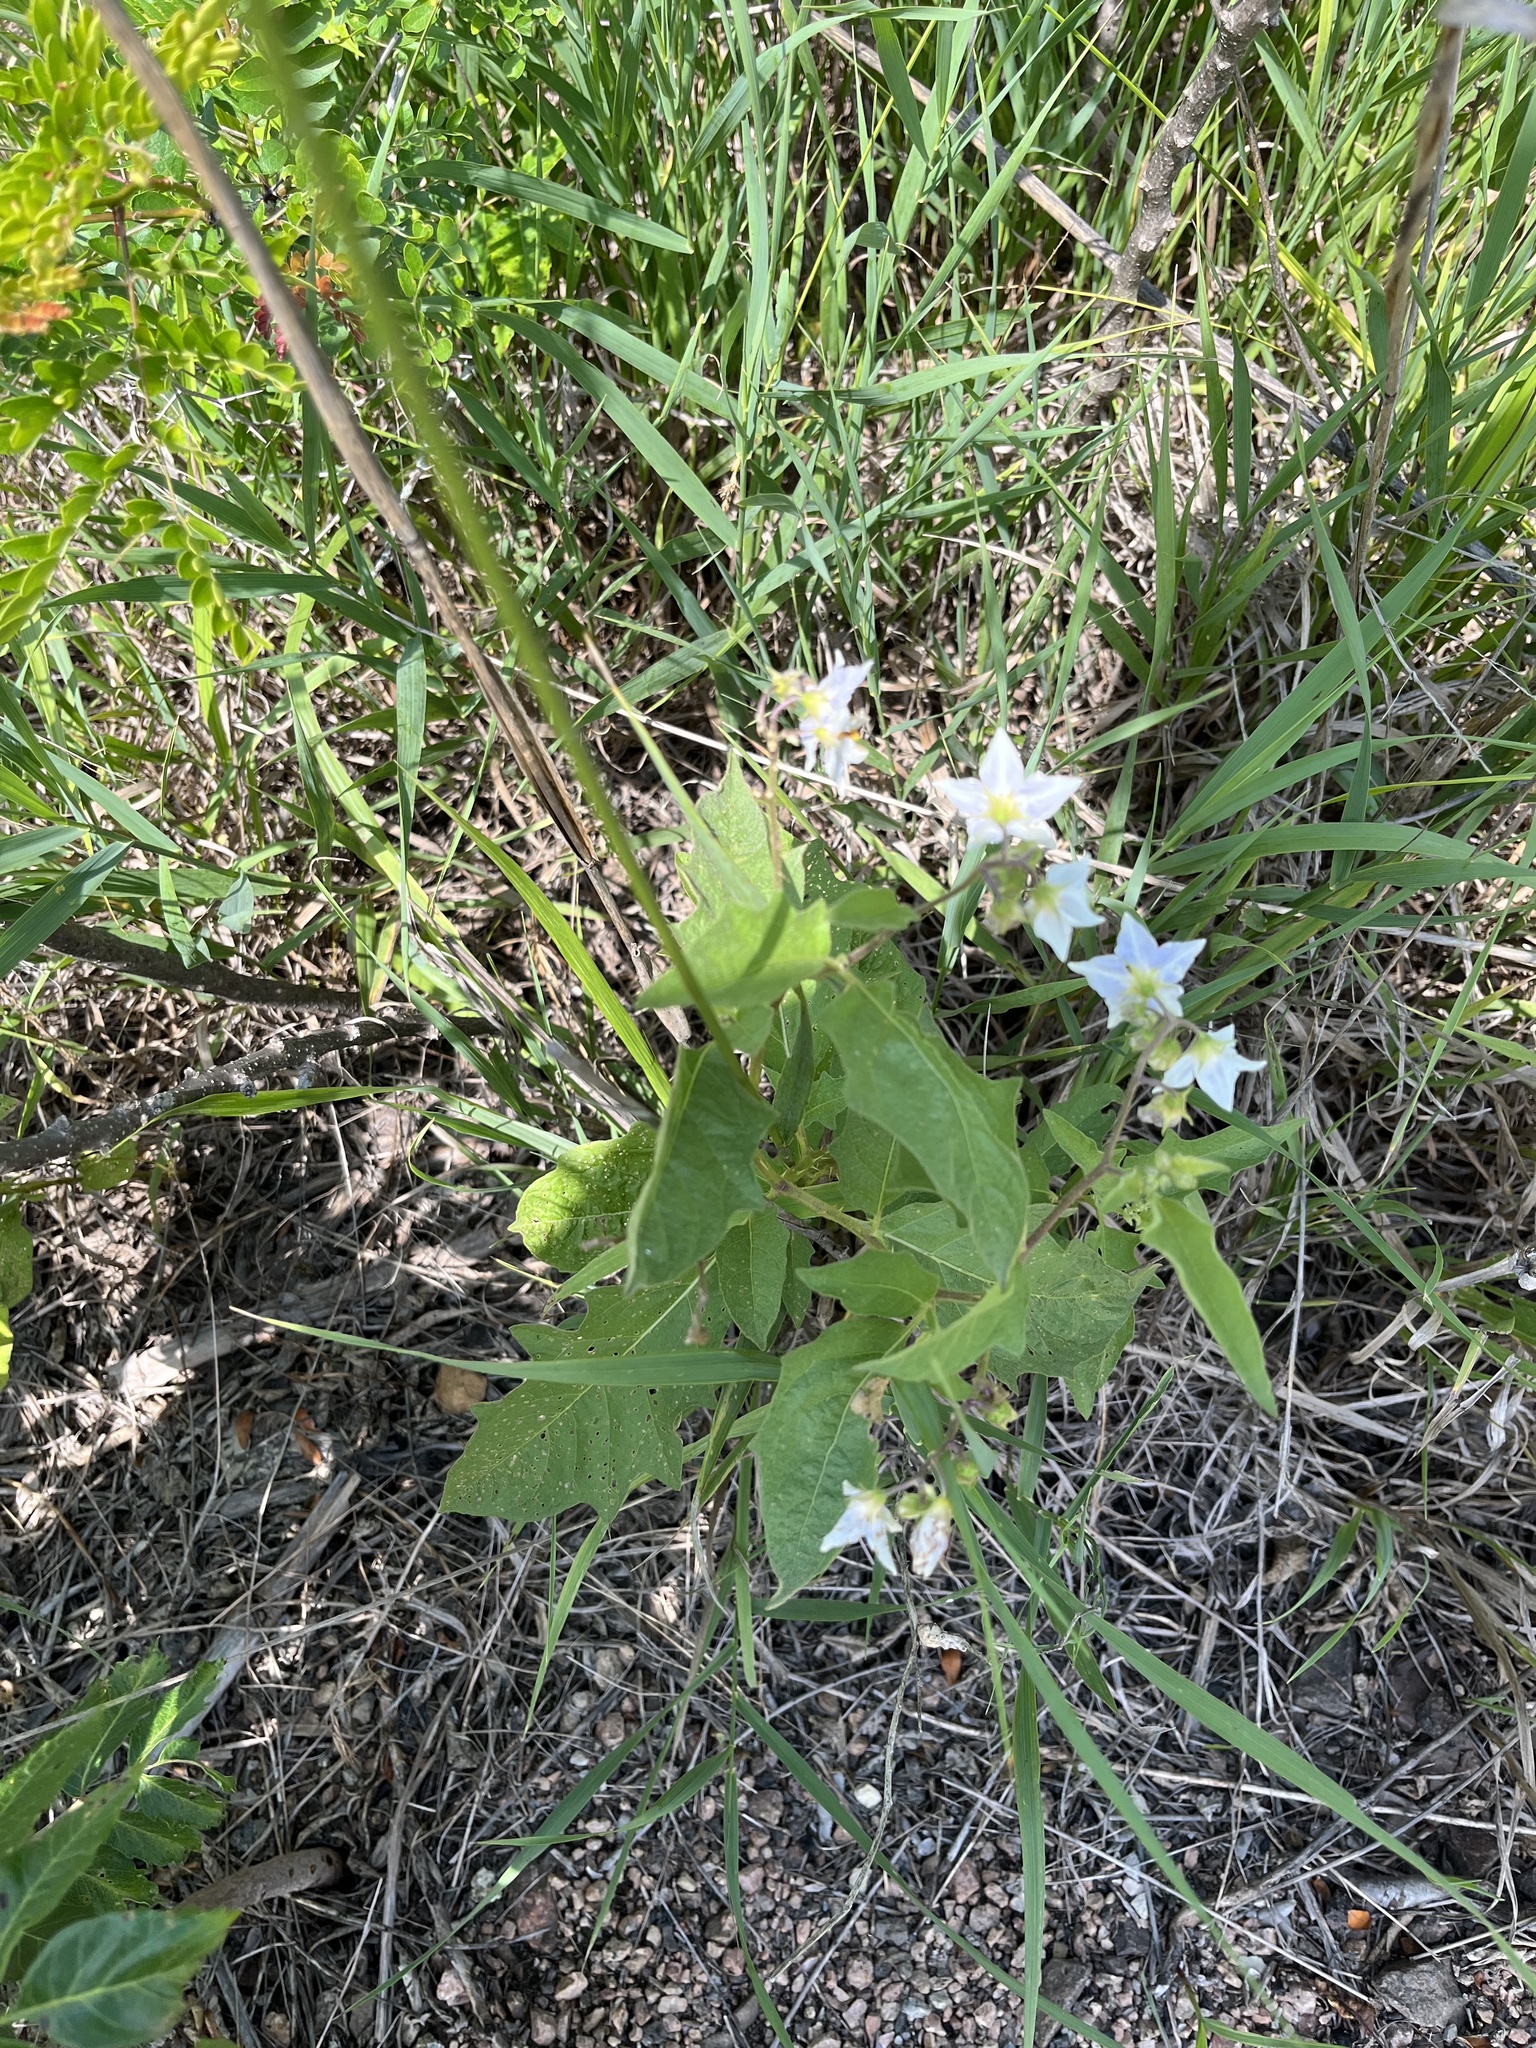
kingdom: Plantae
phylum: Tracheophyta
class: Magnoliopsida
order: Solanales
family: Solanaceae
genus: Solanum
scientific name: Solanum carolinense
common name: Horse-nettle
